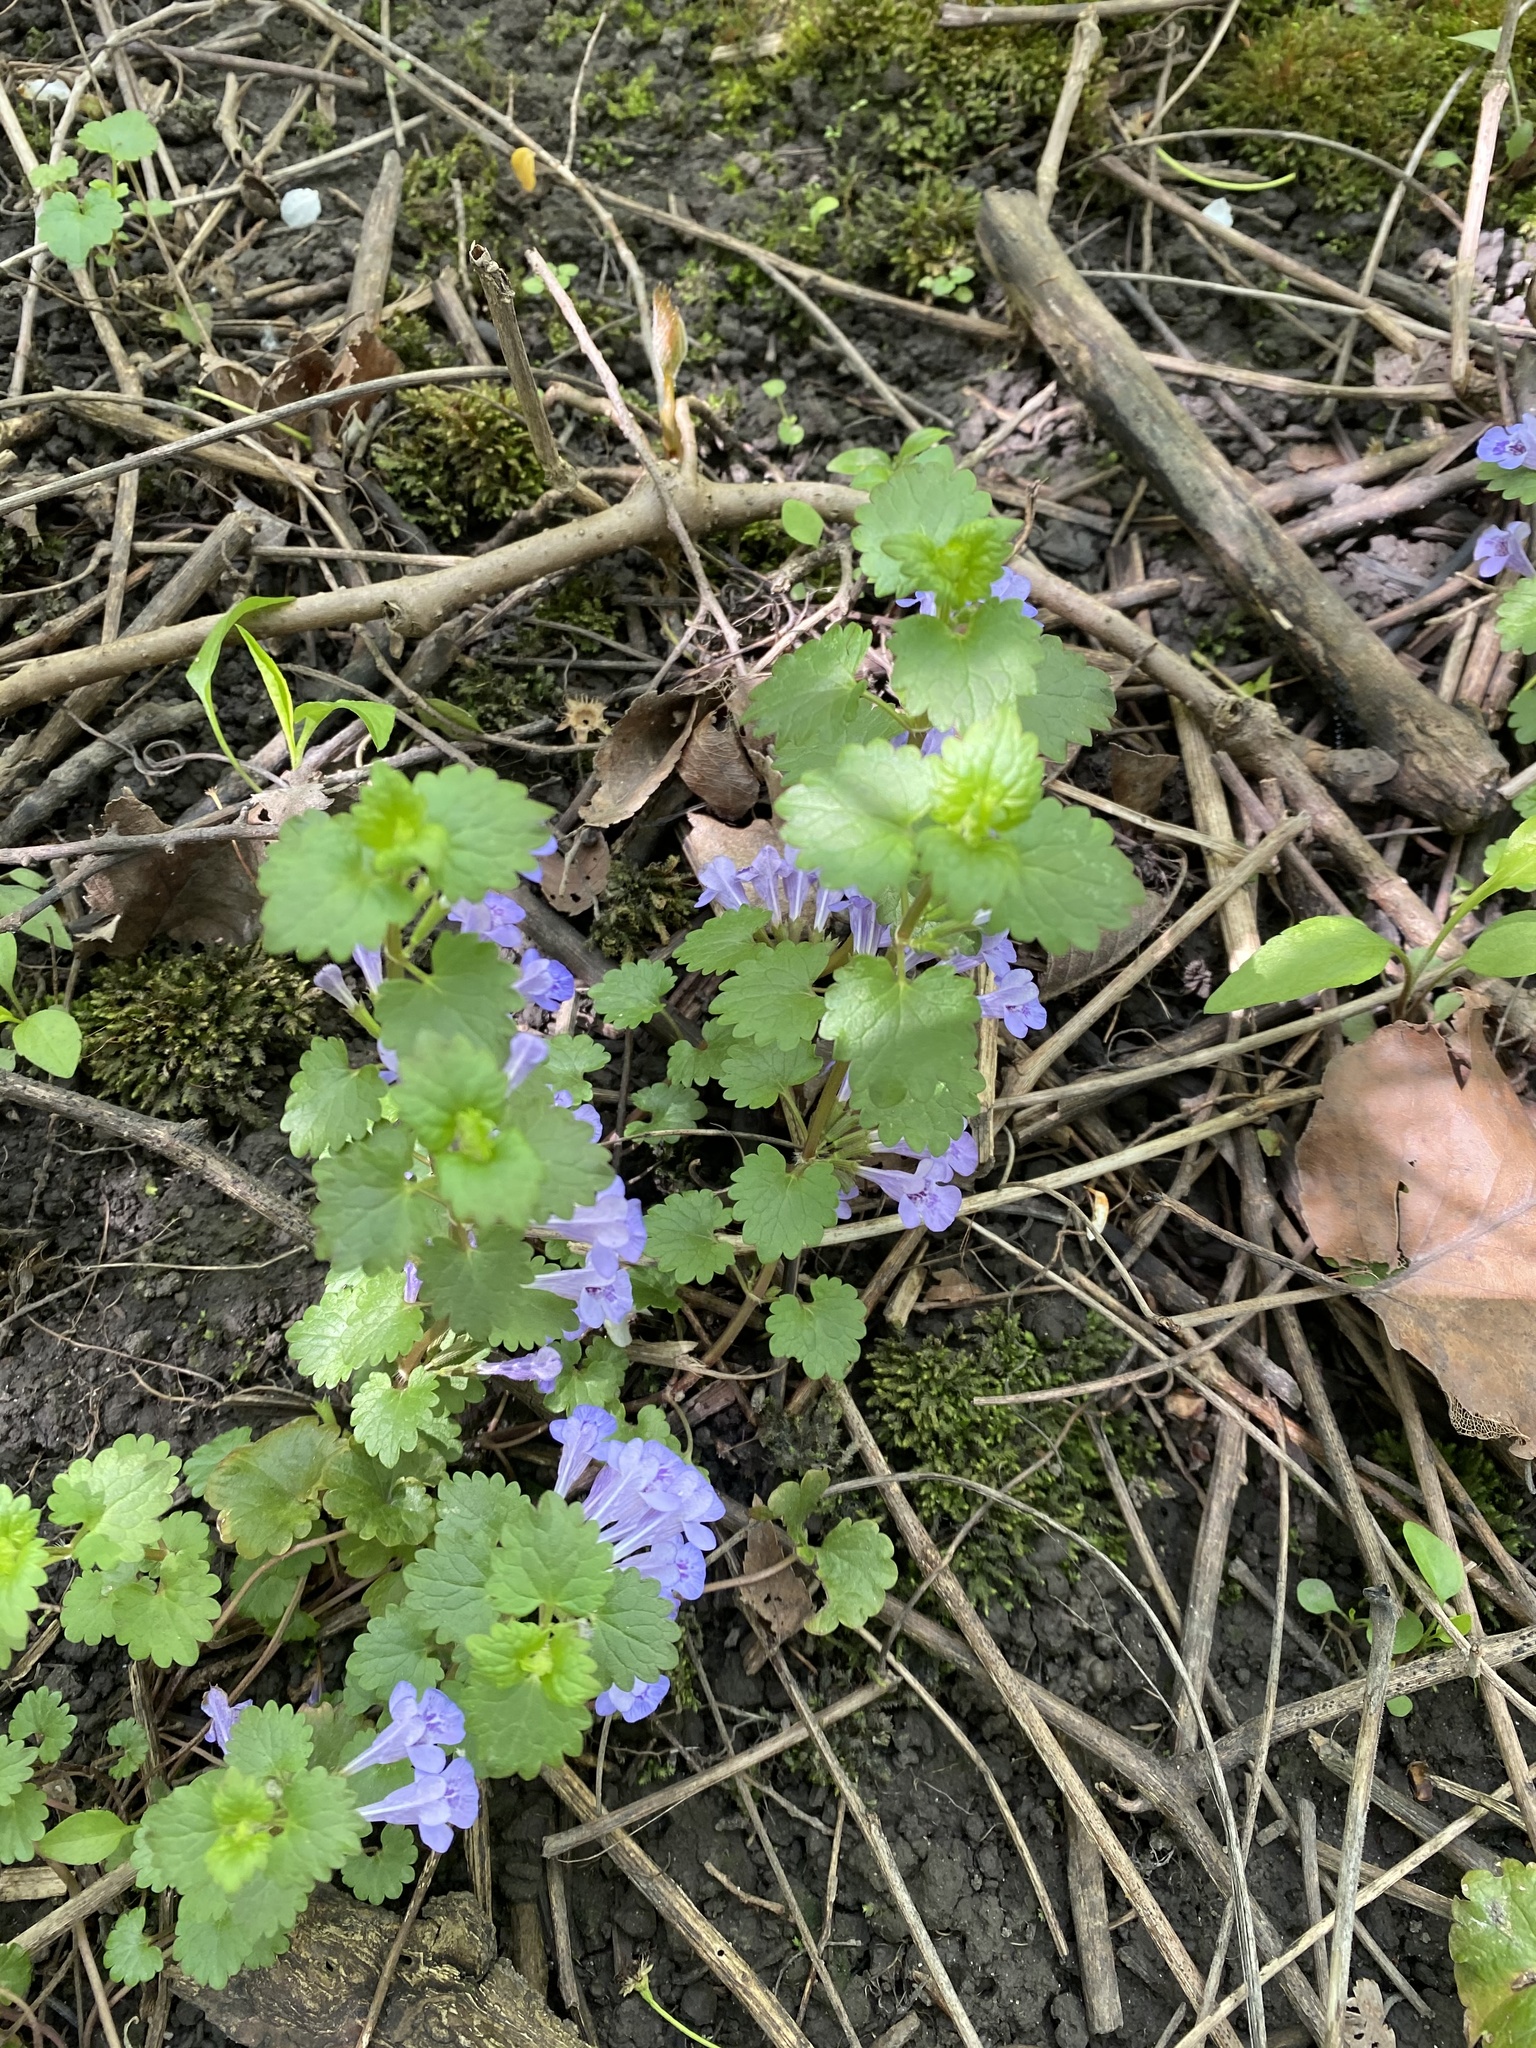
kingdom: Plantae
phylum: Tracheophyta
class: Magnoliopsida
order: Lamiales
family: Lamiaceae
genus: Glechoma
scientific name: Glechoma hederacea
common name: Ground ivy
